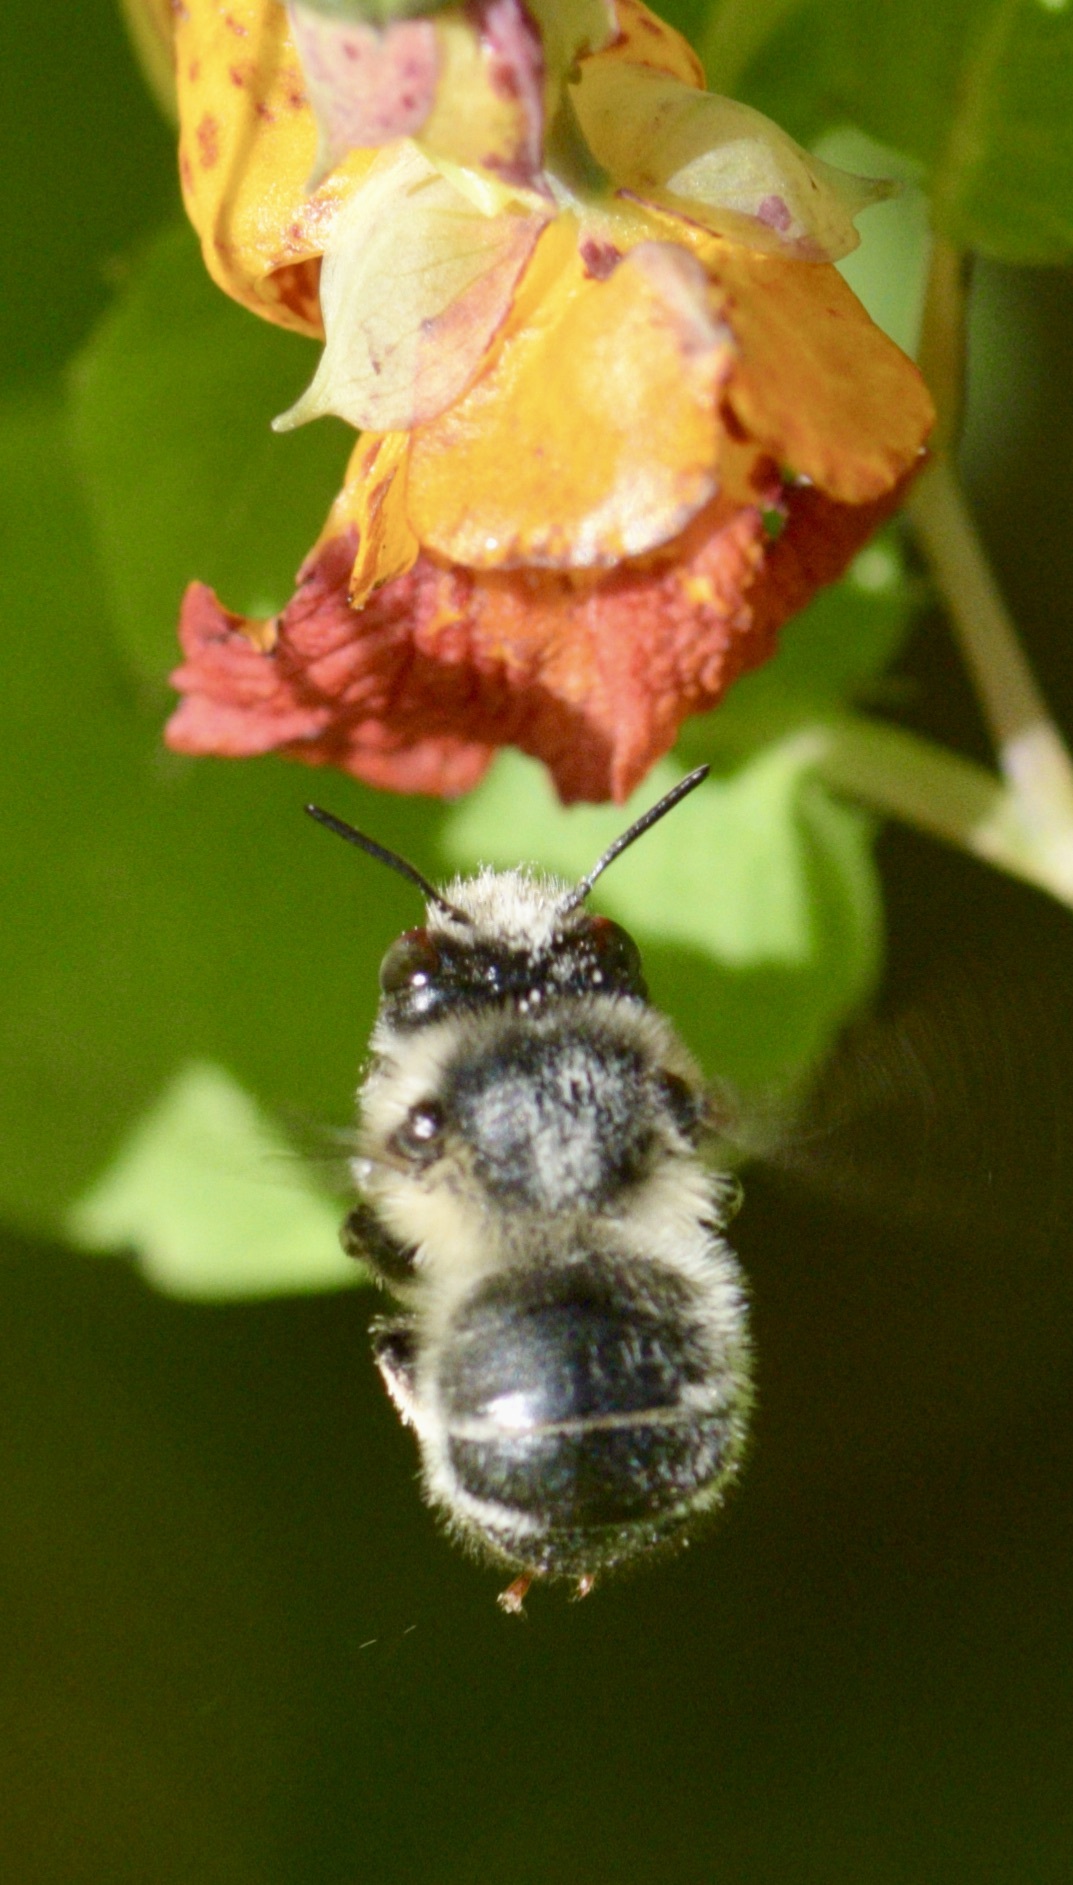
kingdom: Animalia
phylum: Arthropoda
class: Insecta
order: Hymenoptera
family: Apidae
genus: Anthophora
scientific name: Anthophora terminalis
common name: Orange-tipped wood-digger bee
